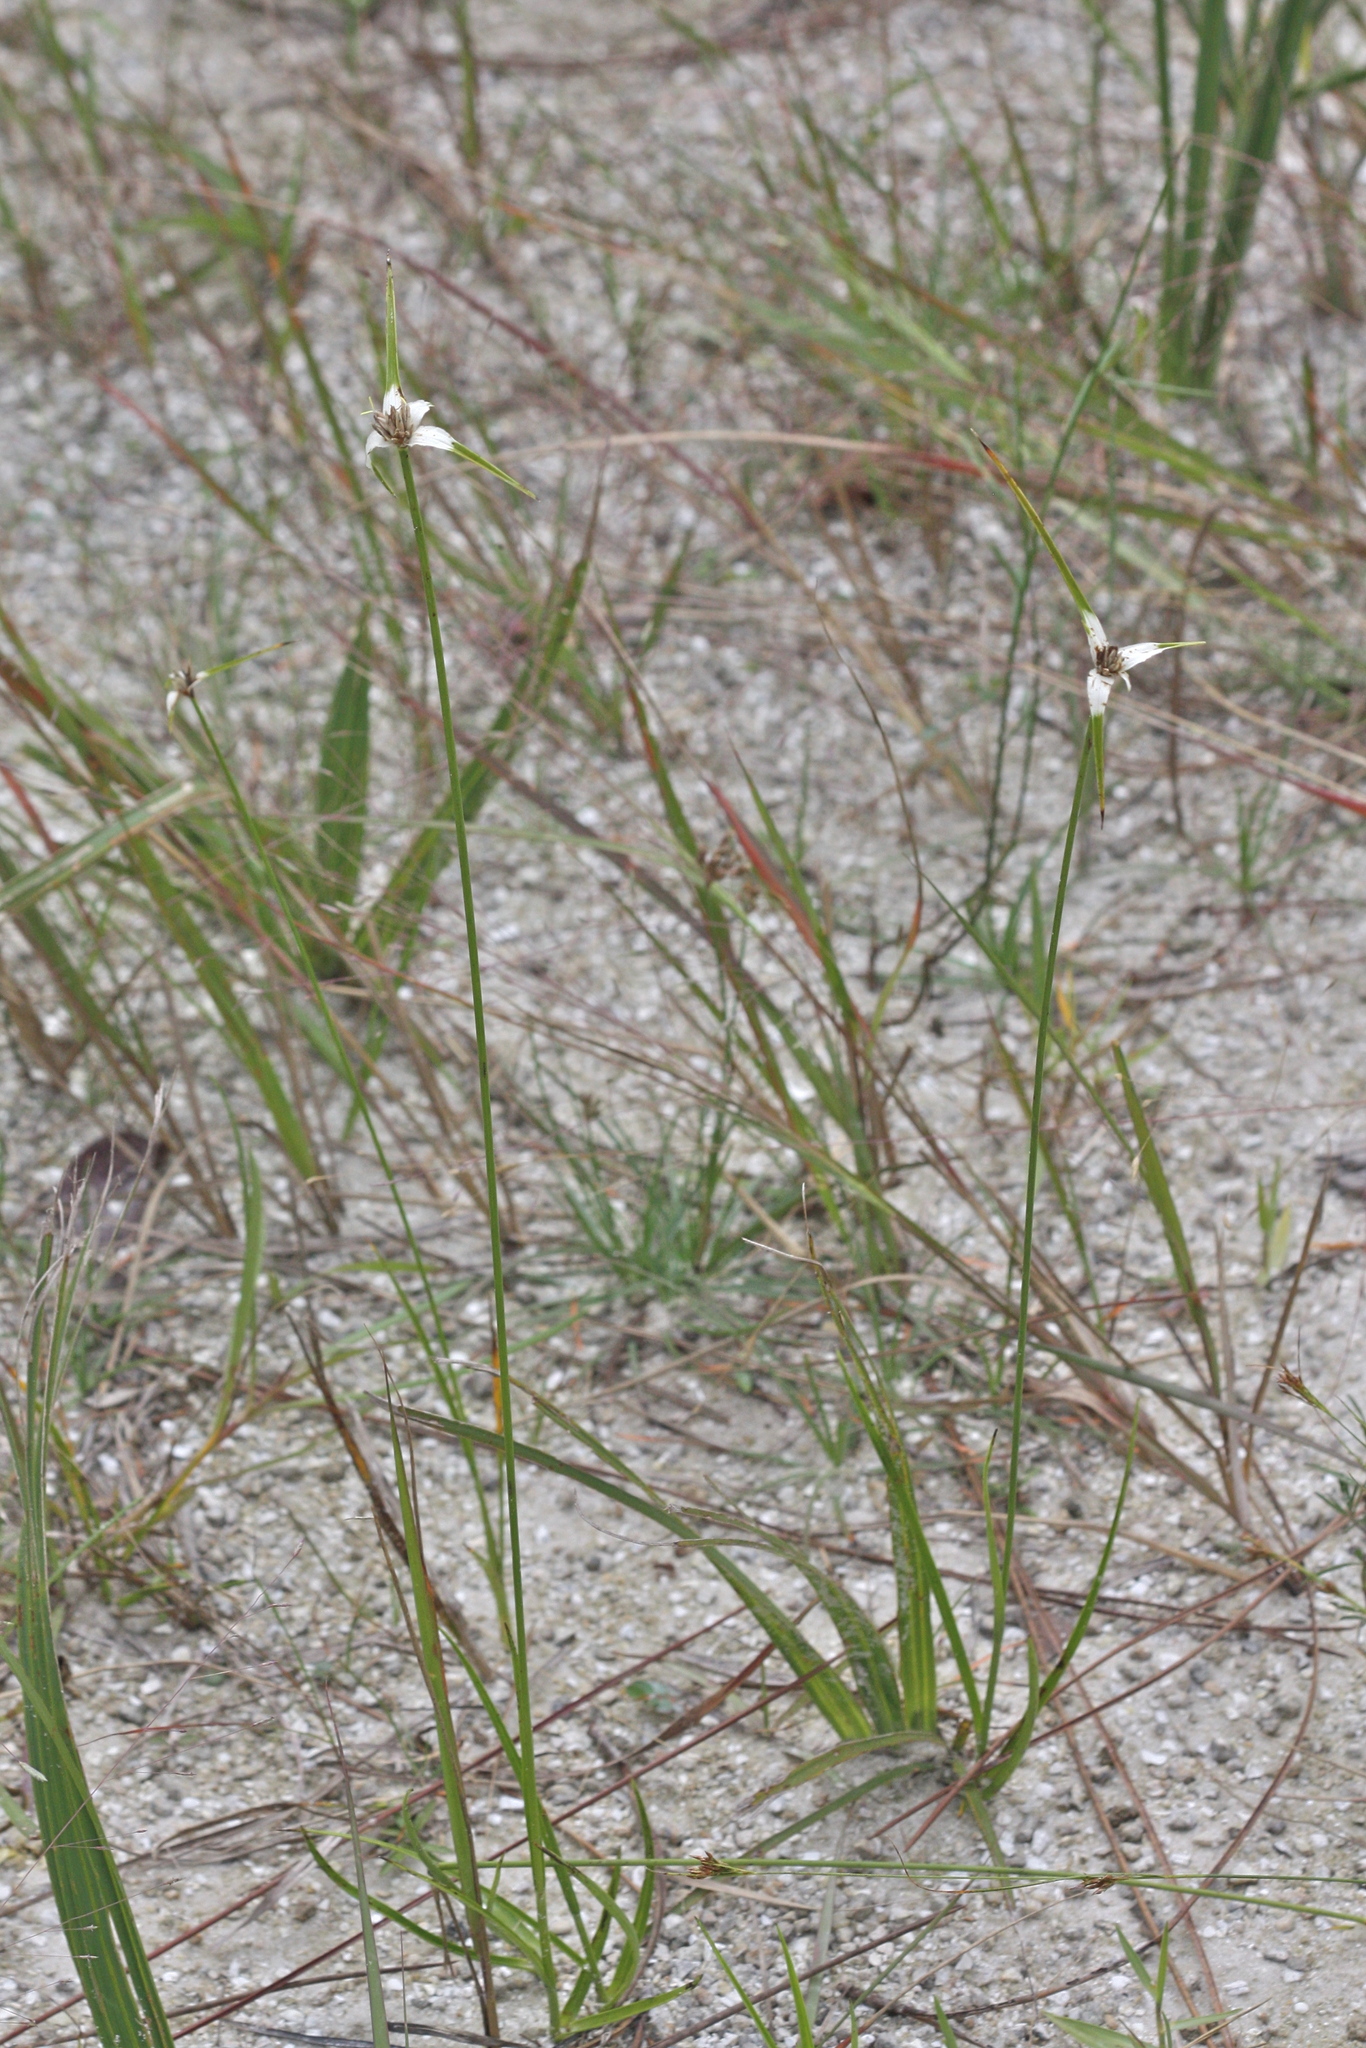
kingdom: Plantae
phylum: Tracheophyta
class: Liliopsida
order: Poales
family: Cyperaceae
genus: Rhynchospora
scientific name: Rhynchospora colorata
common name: Star sedge
